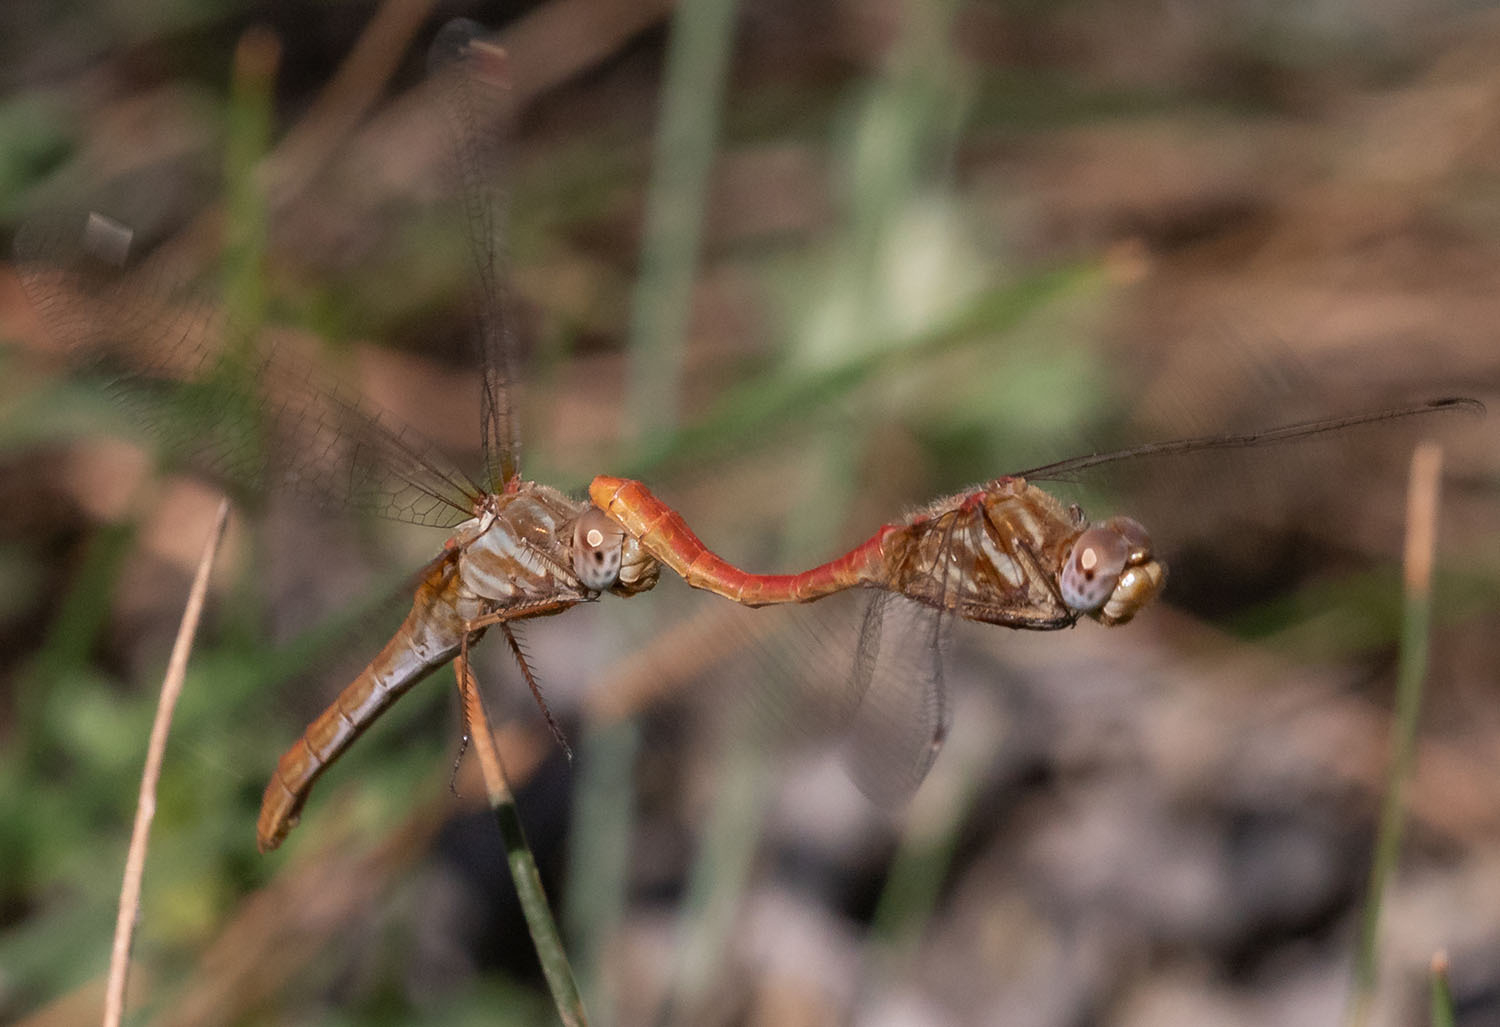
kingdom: Animalia
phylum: Arthropoda
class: Insecta
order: Odonata
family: Libellulidae
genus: Sympetrum
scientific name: Sympetrum pallipes
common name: Striped meadowhawk
